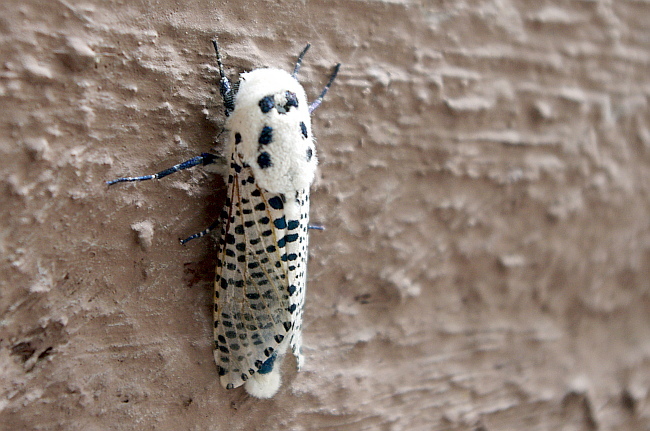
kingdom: Animalia
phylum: Arthropoda
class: Insecta
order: Lepidoptera
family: Cossidae
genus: Zeuzera
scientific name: Zeuzera pyrina
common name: Leopard moth
